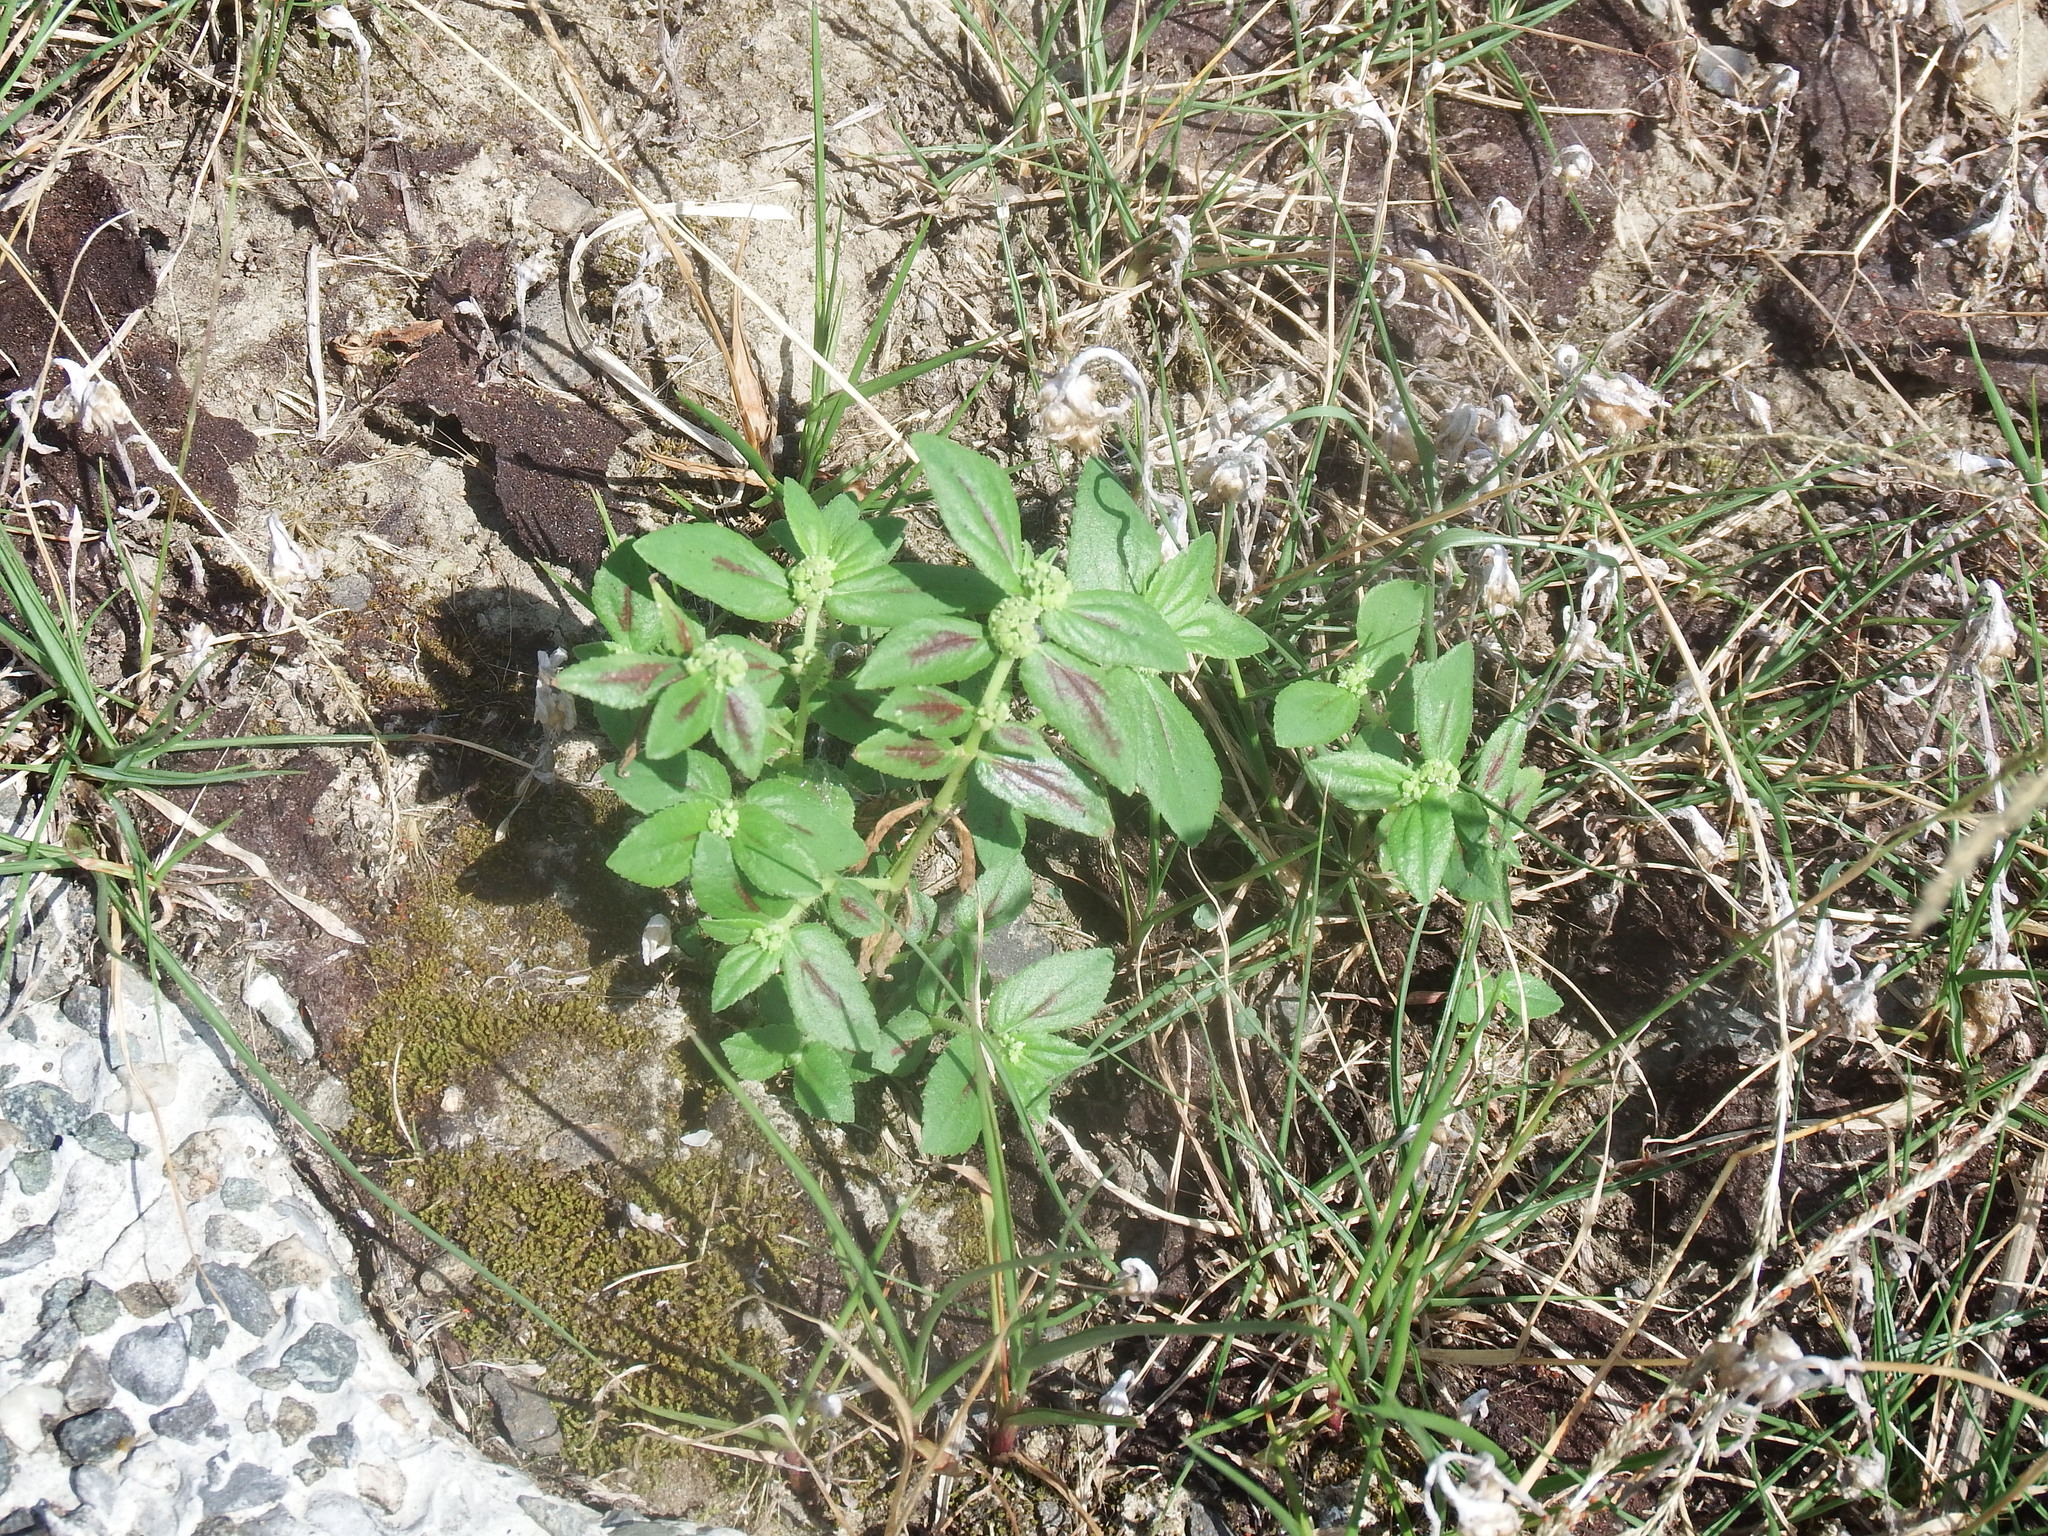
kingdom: Plantae
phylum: Tracheophyta
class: Magnoliopsida
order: Malpighiales
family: Euphorbiaceae
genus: Euphorbia
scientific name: Euphorbia hirta
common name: Pillpod sandmat
